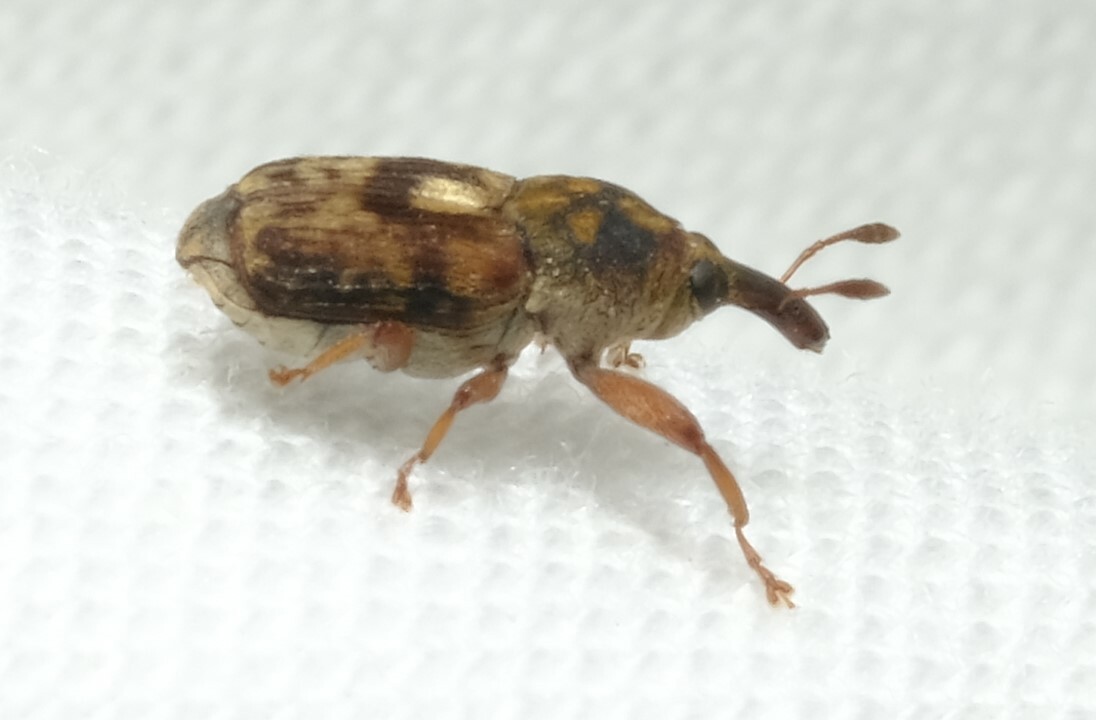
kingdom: Animalia
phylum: Arthropoda
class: Insecta
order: Coleoptera
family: Curculionidae
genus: Neolaemosaccus
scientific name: Neolaemosaccus nigriceps
